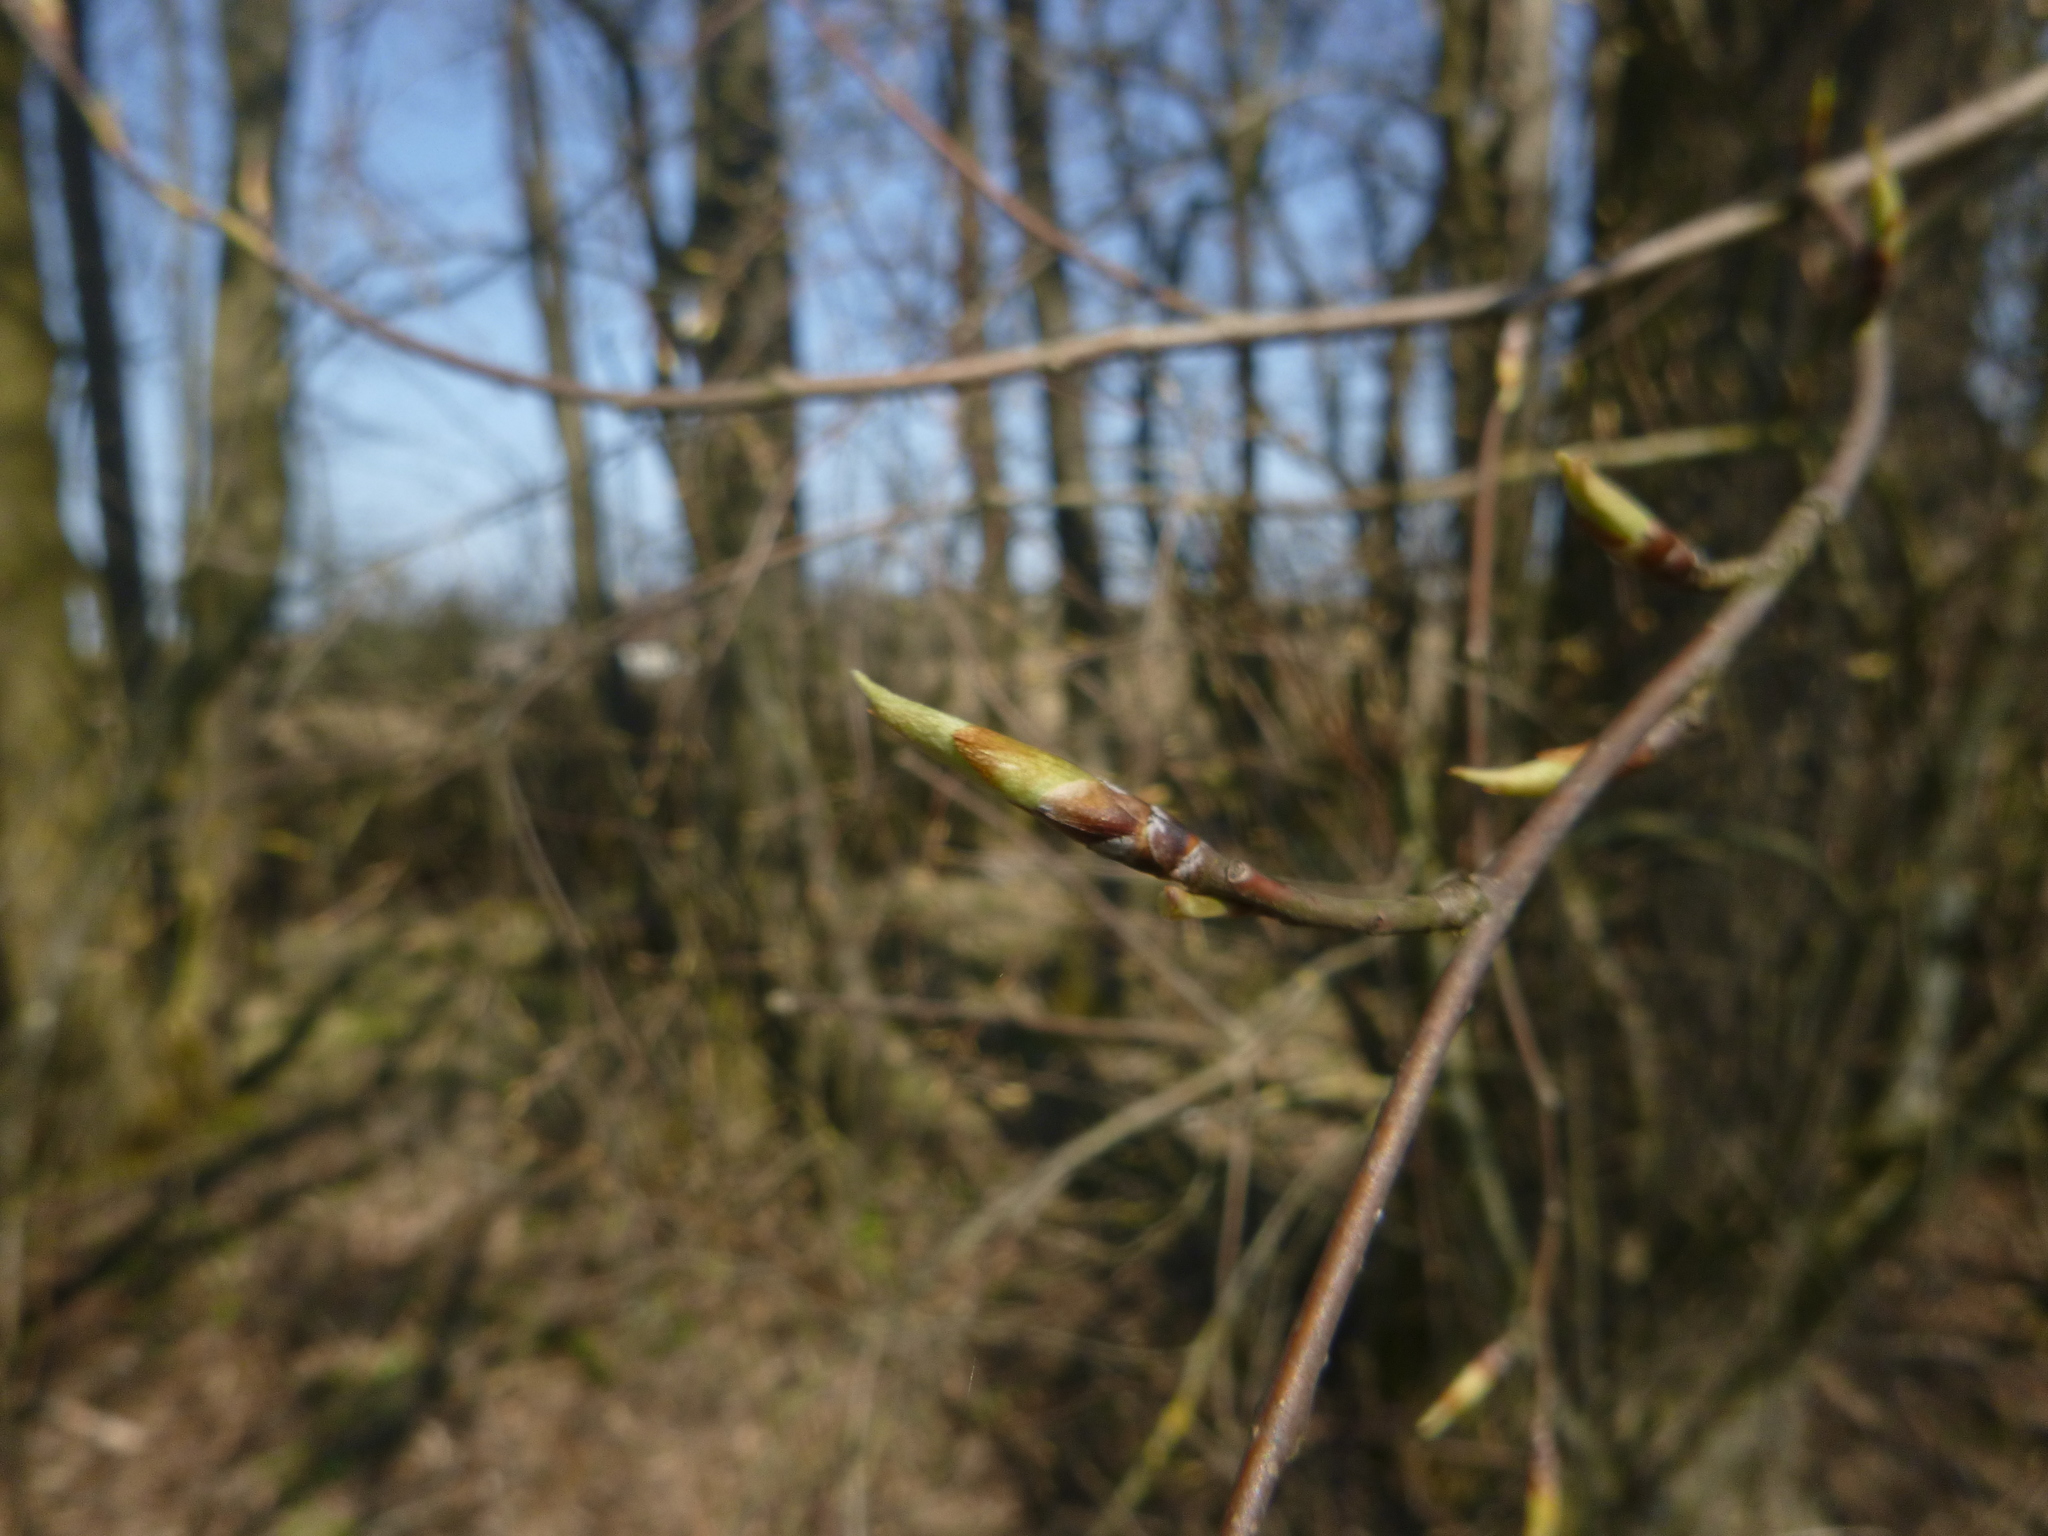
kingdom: Plantae
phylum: Tracheophyta
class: Magnoliopsida
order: Rosales
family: Rosaceae
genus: Prunus
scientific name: Prunus padus
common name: Bird cherry
